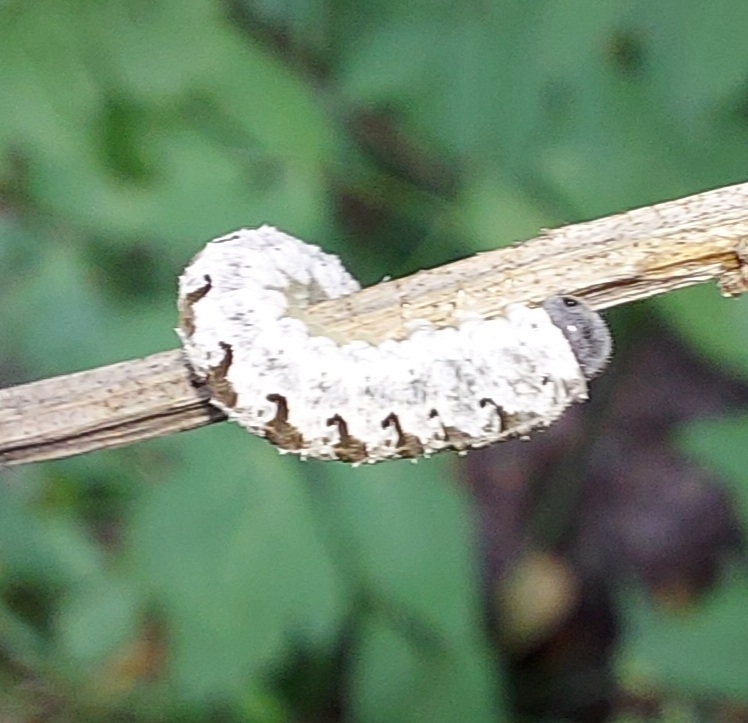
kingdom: Animalia
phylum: Arthropoda
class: Insecta
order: Hymenoptera
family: Tenthredinidae
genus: Tenthredo
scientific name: Tenthredo vespa
